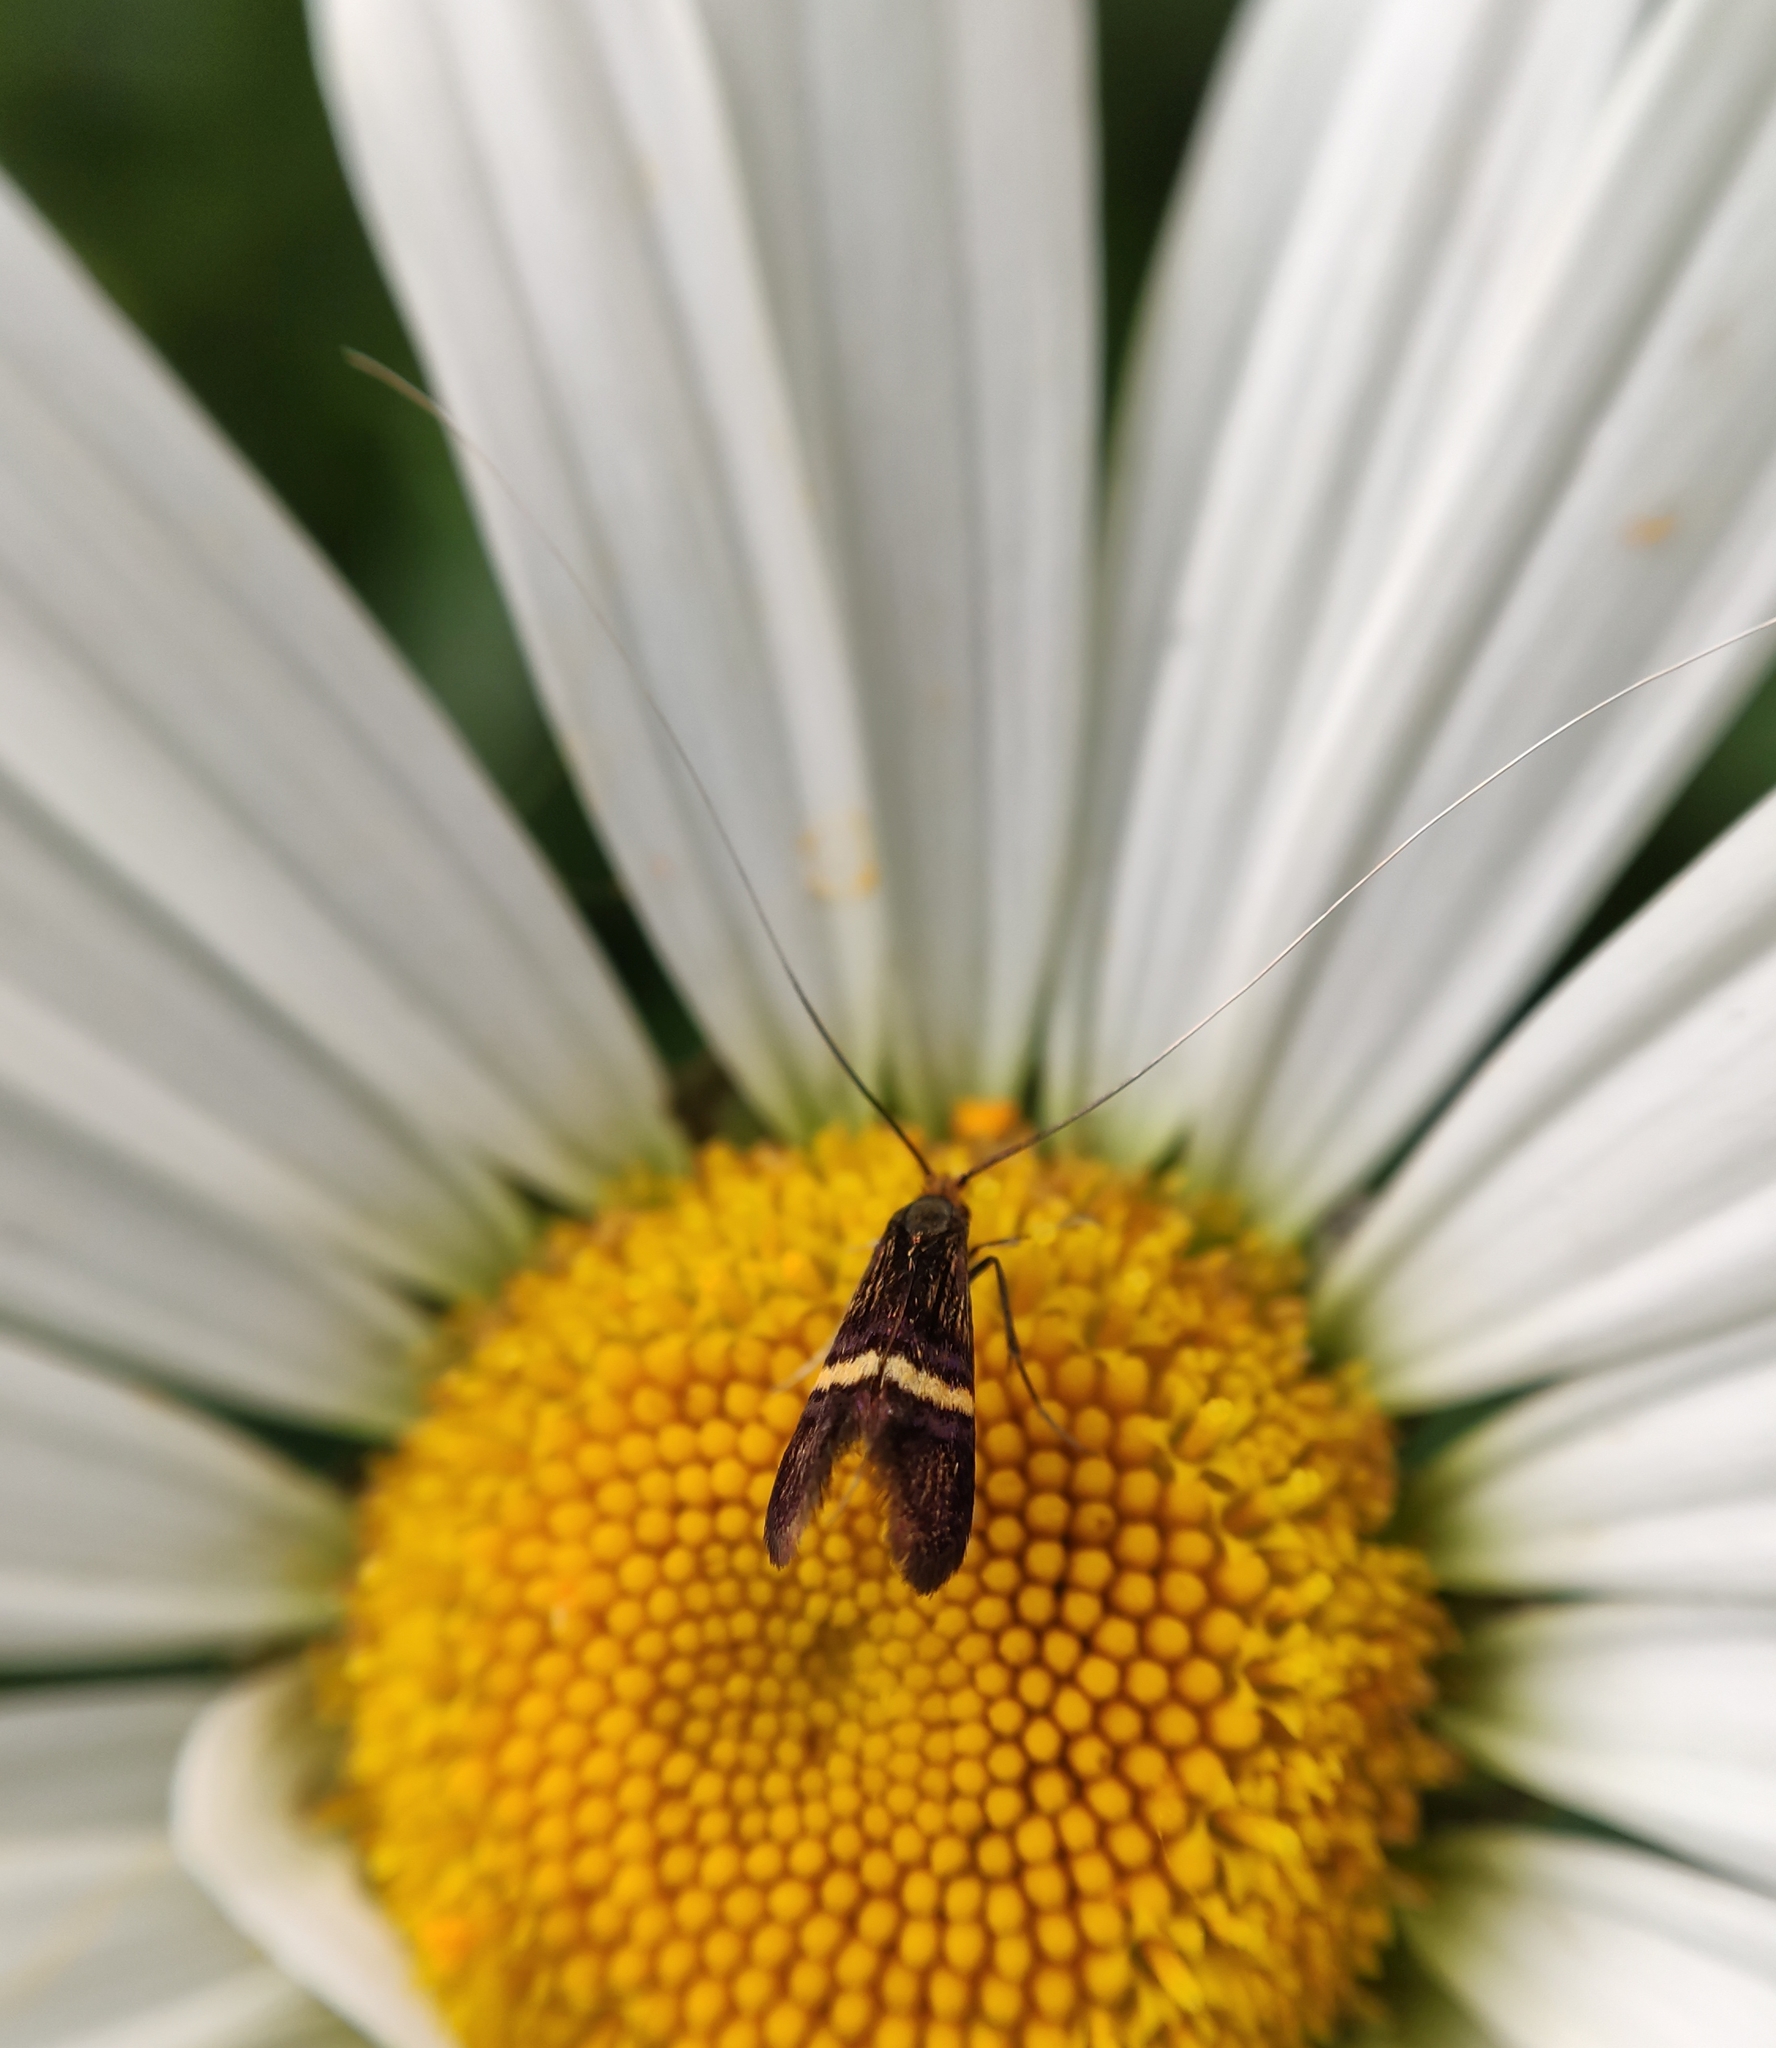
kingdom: Animalia
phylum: Arthropoda
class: Insecta
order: Lepidoptera
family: Adelidae
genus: Adela
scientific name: Adela croesella
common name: Small barred long-horn
